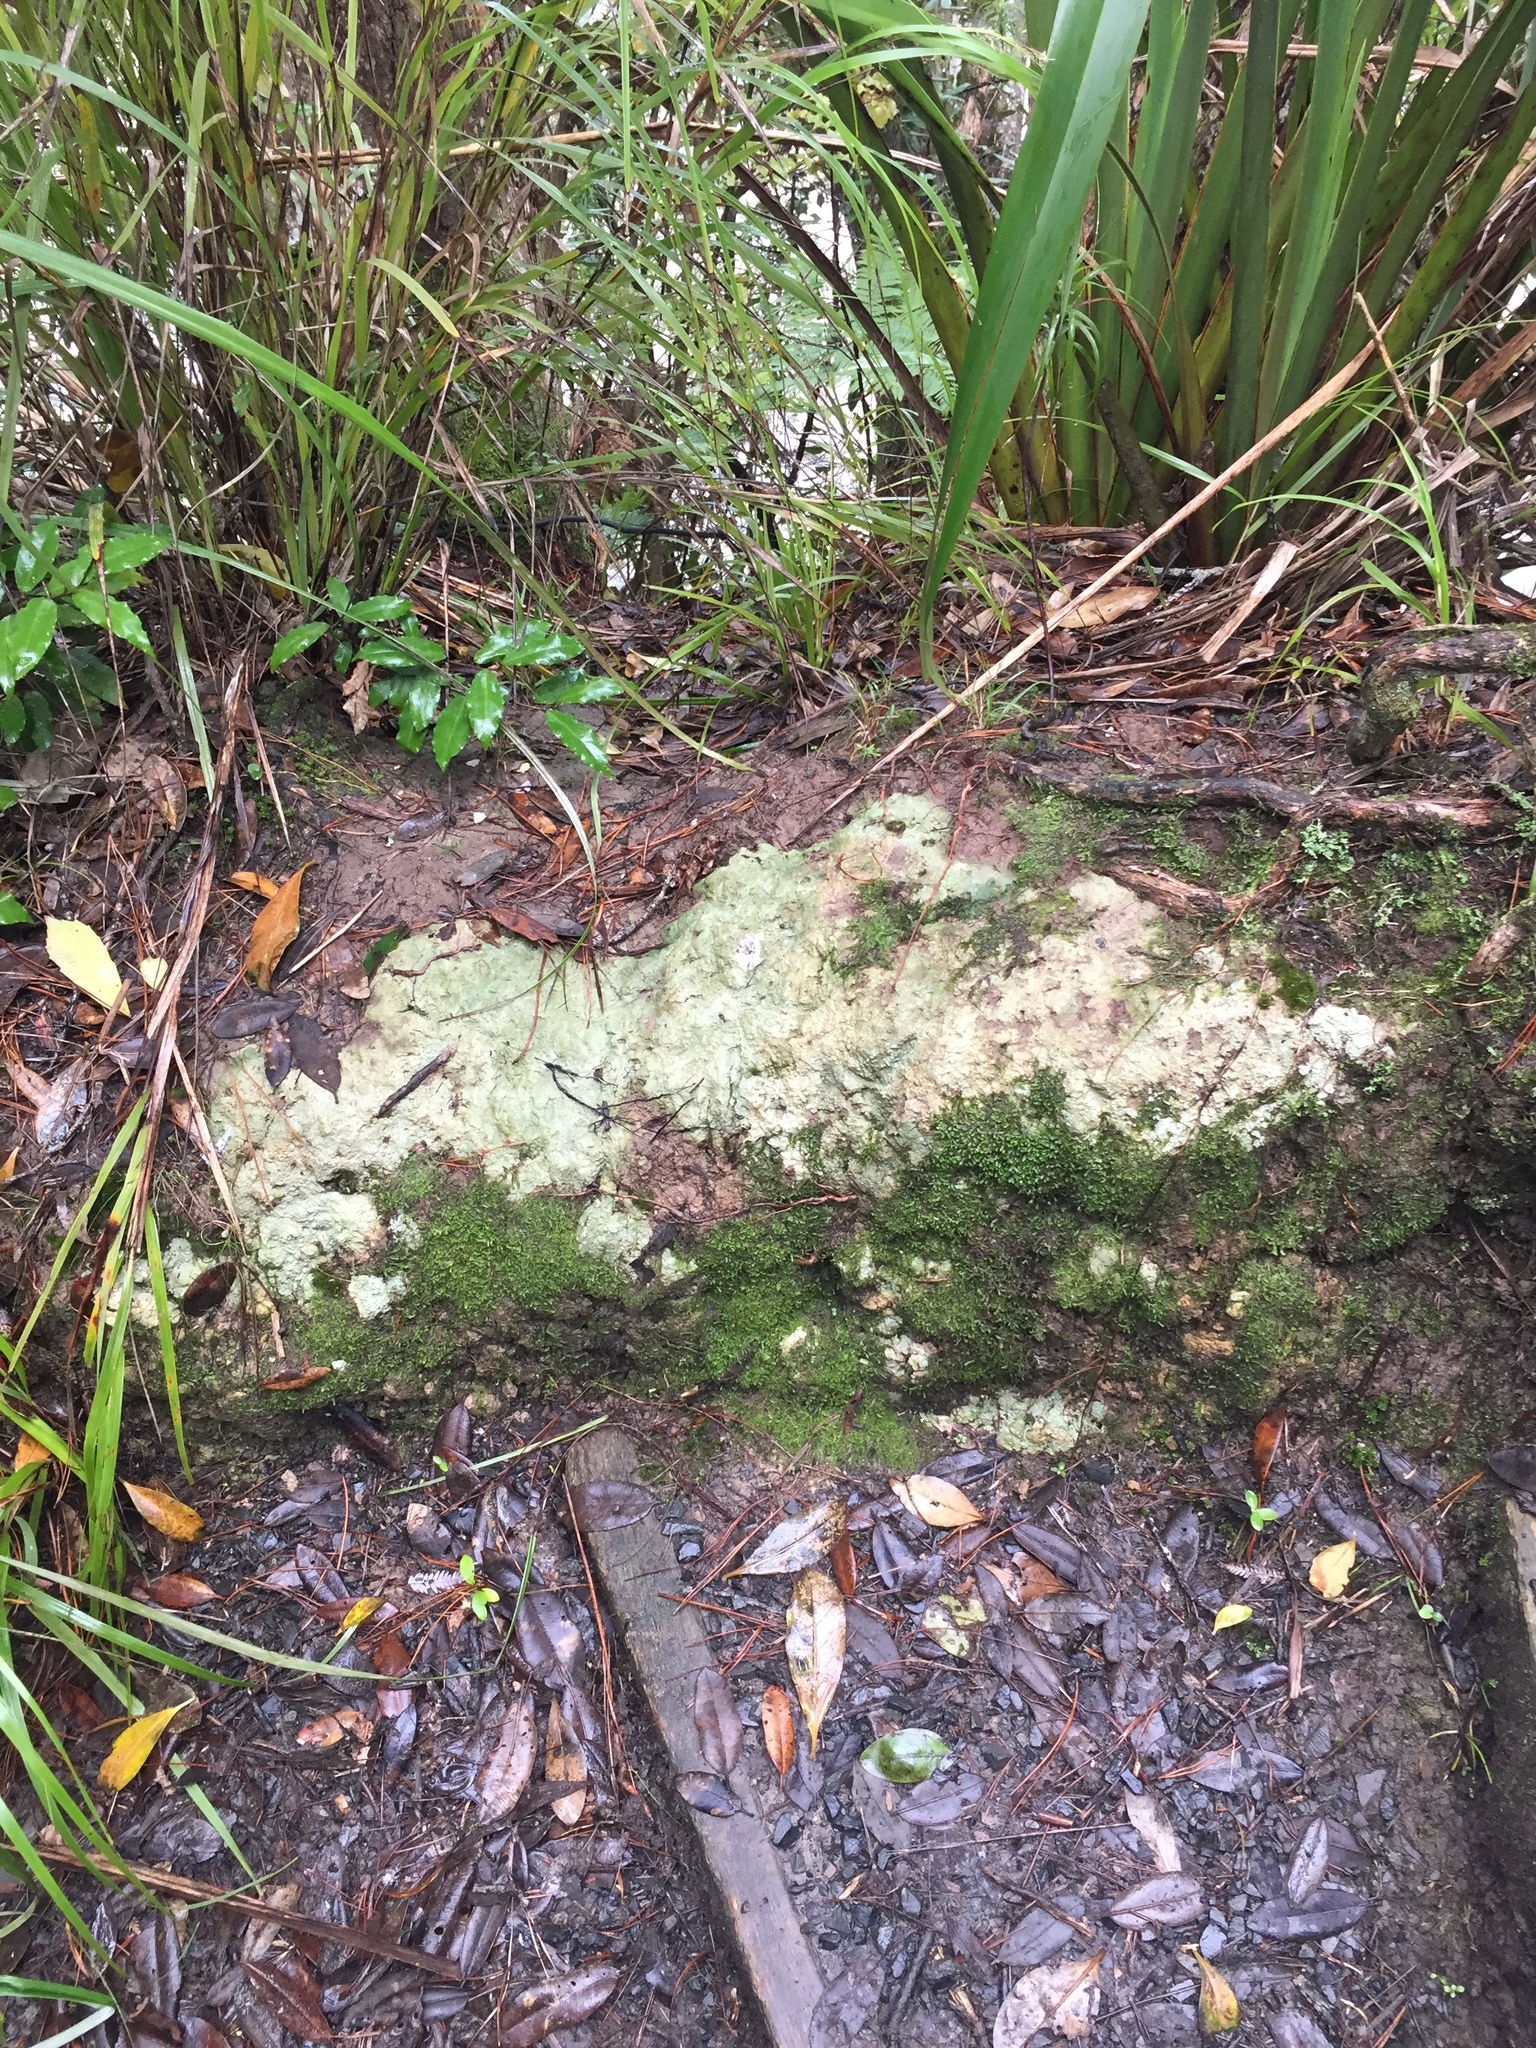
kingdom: Fungi
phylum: Ascomycota
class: Lecanoromycetes
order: Pertusariales
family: Icmadophilaceae
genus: Dibaeis
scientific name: Dibaeis arcuata
